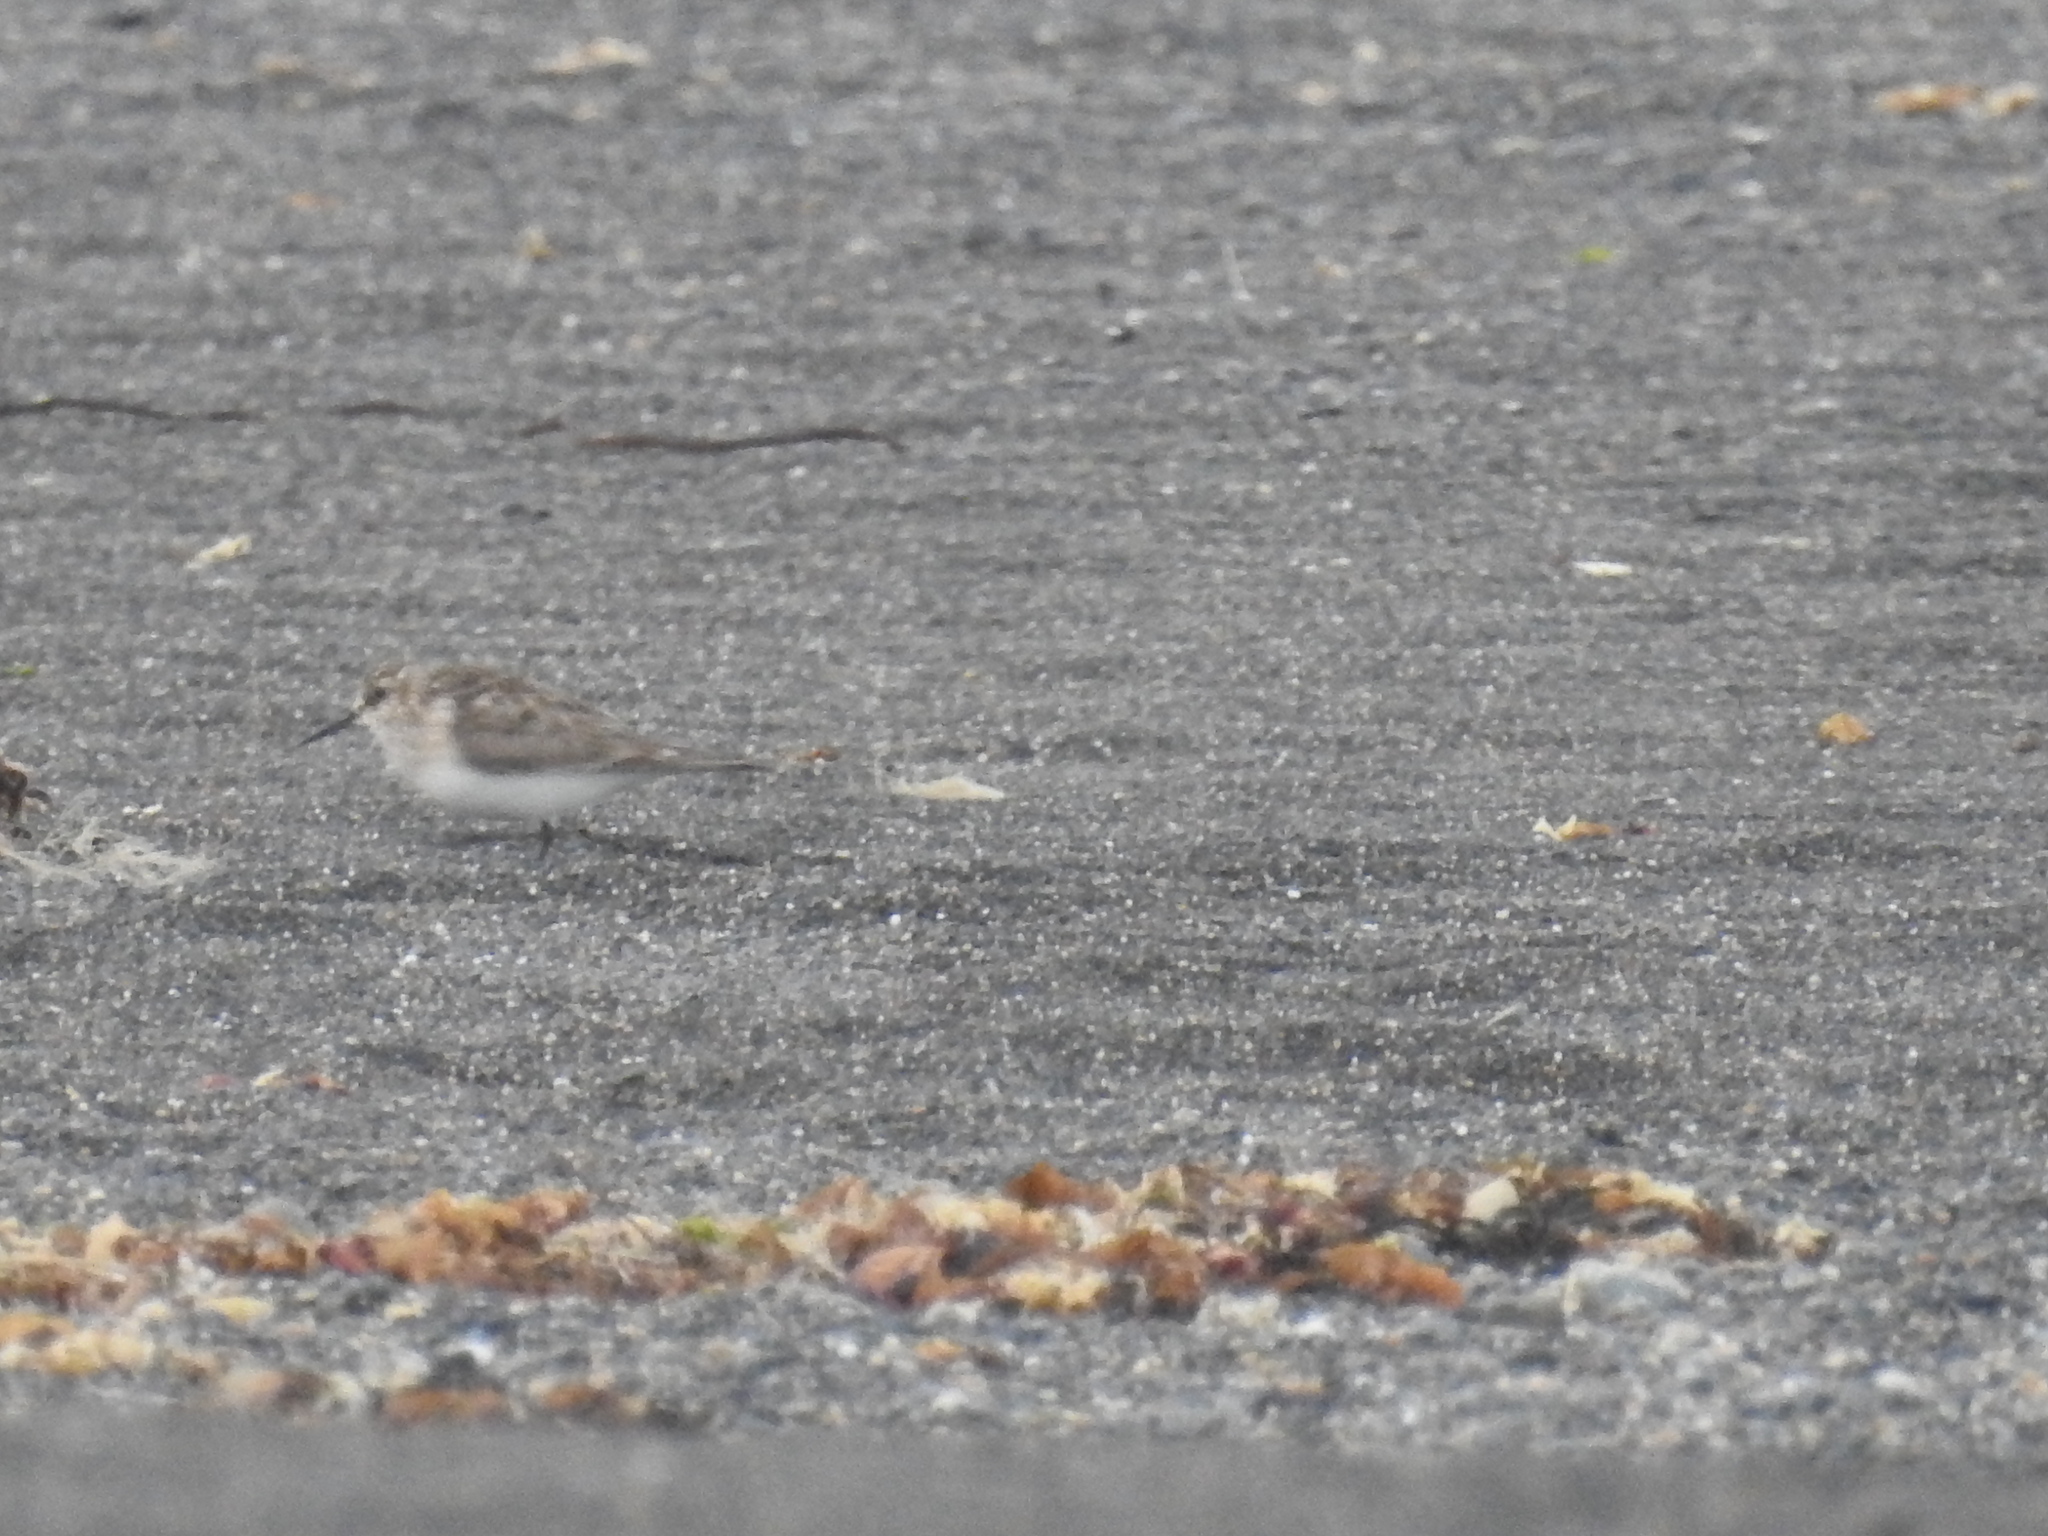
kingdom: Animalia
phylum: Chordata
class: Aves
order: Charadriiformes
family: Scolopacidae
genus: Calidris
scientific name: Calidris bairdii
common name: Baird's sandpiper
